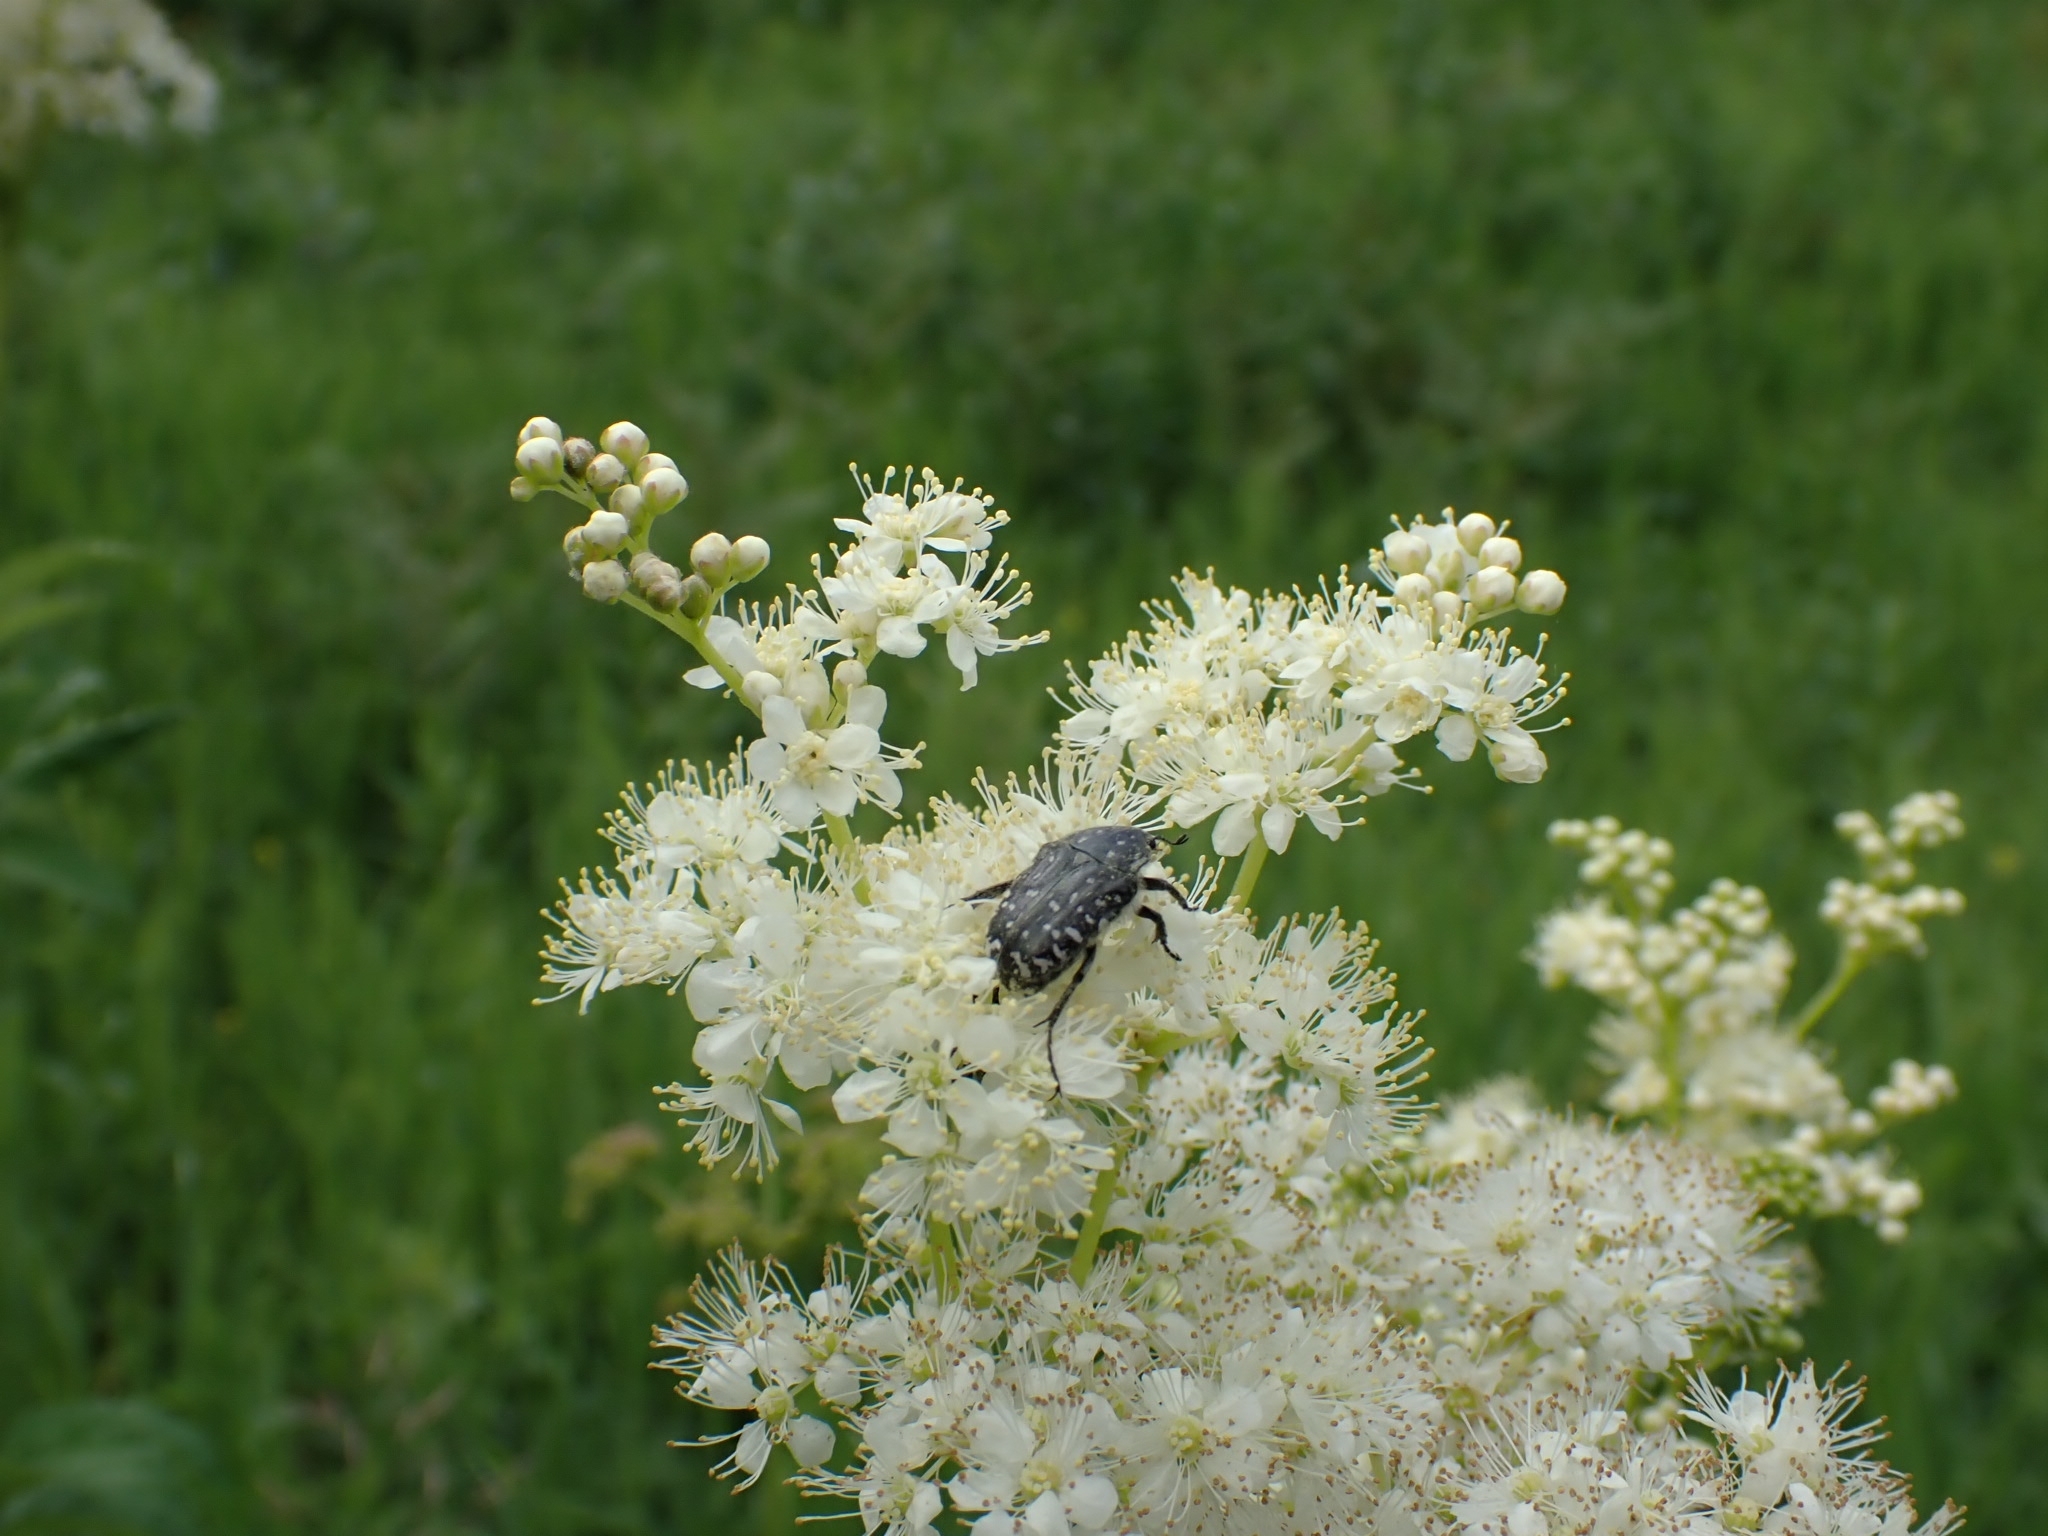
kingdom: Animalia
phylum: Arthropoda
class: Insecta
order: Coleoptera
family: Scarabaeidae
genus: Oxythyrea
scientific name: Oxythyrea funesta
